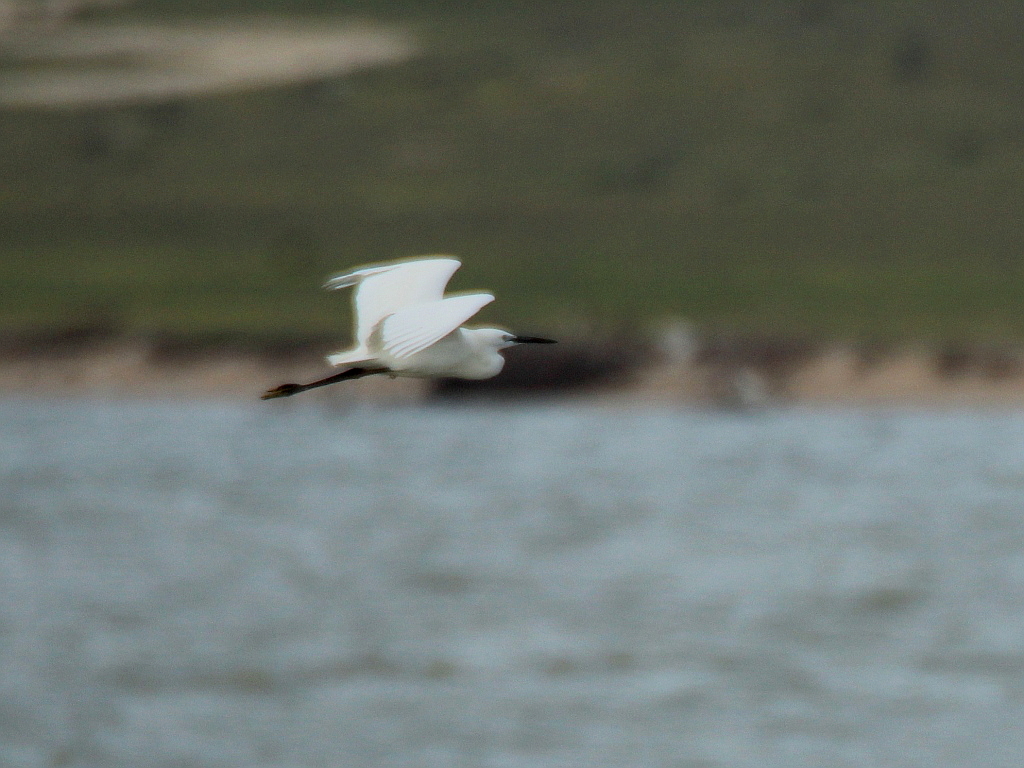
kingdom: Animalia
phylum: Chordata
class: Aves
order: Pelecaniformes
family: Ardeidae
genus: Egretta
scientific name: Egretta garzetta
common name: Little egret
